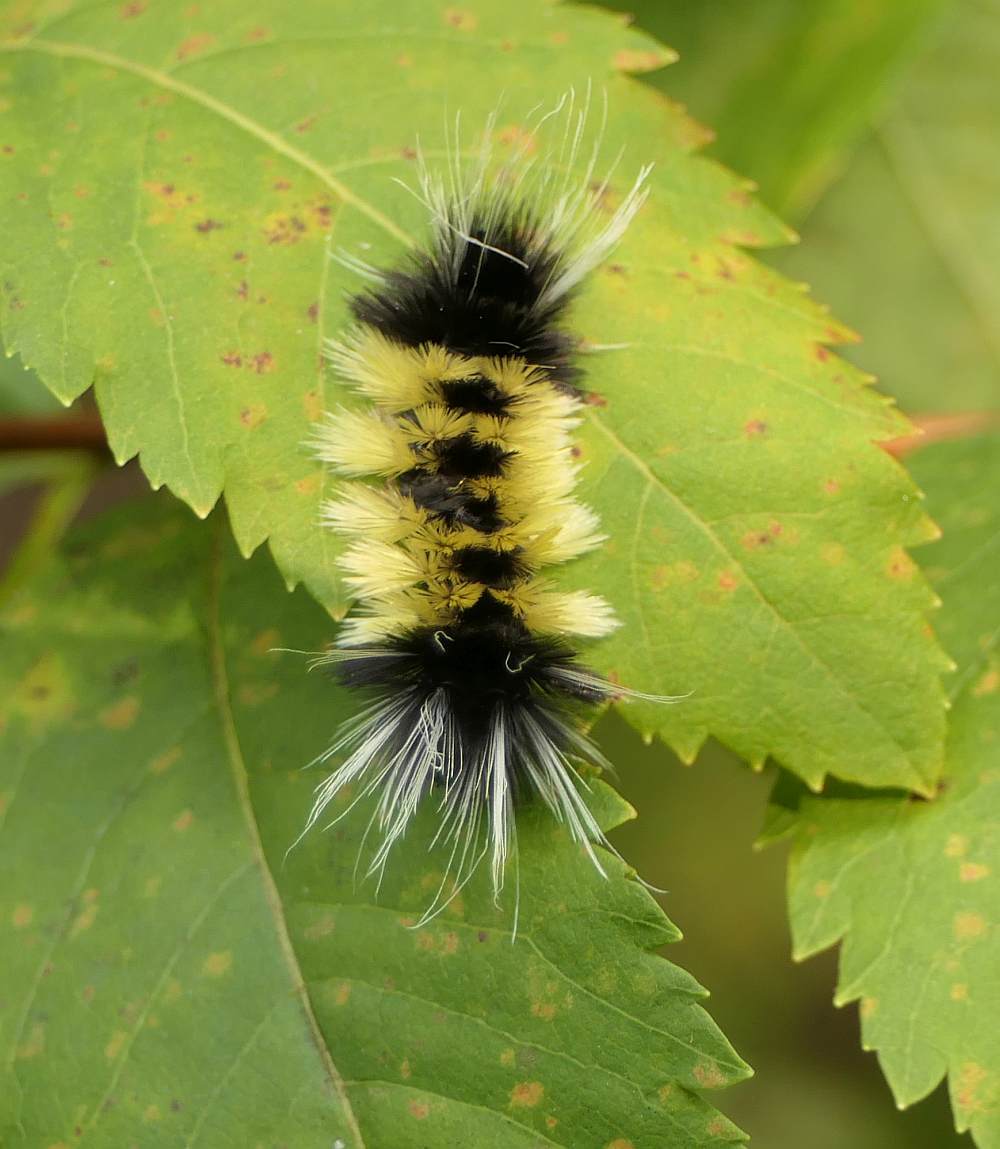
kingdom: Animalia
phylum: Arthropoda
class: Insecta
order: Lepidoptera
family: Erebidae
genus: Lophocampa
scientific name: Lophocampa maculata
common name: Spotted tussock moth
